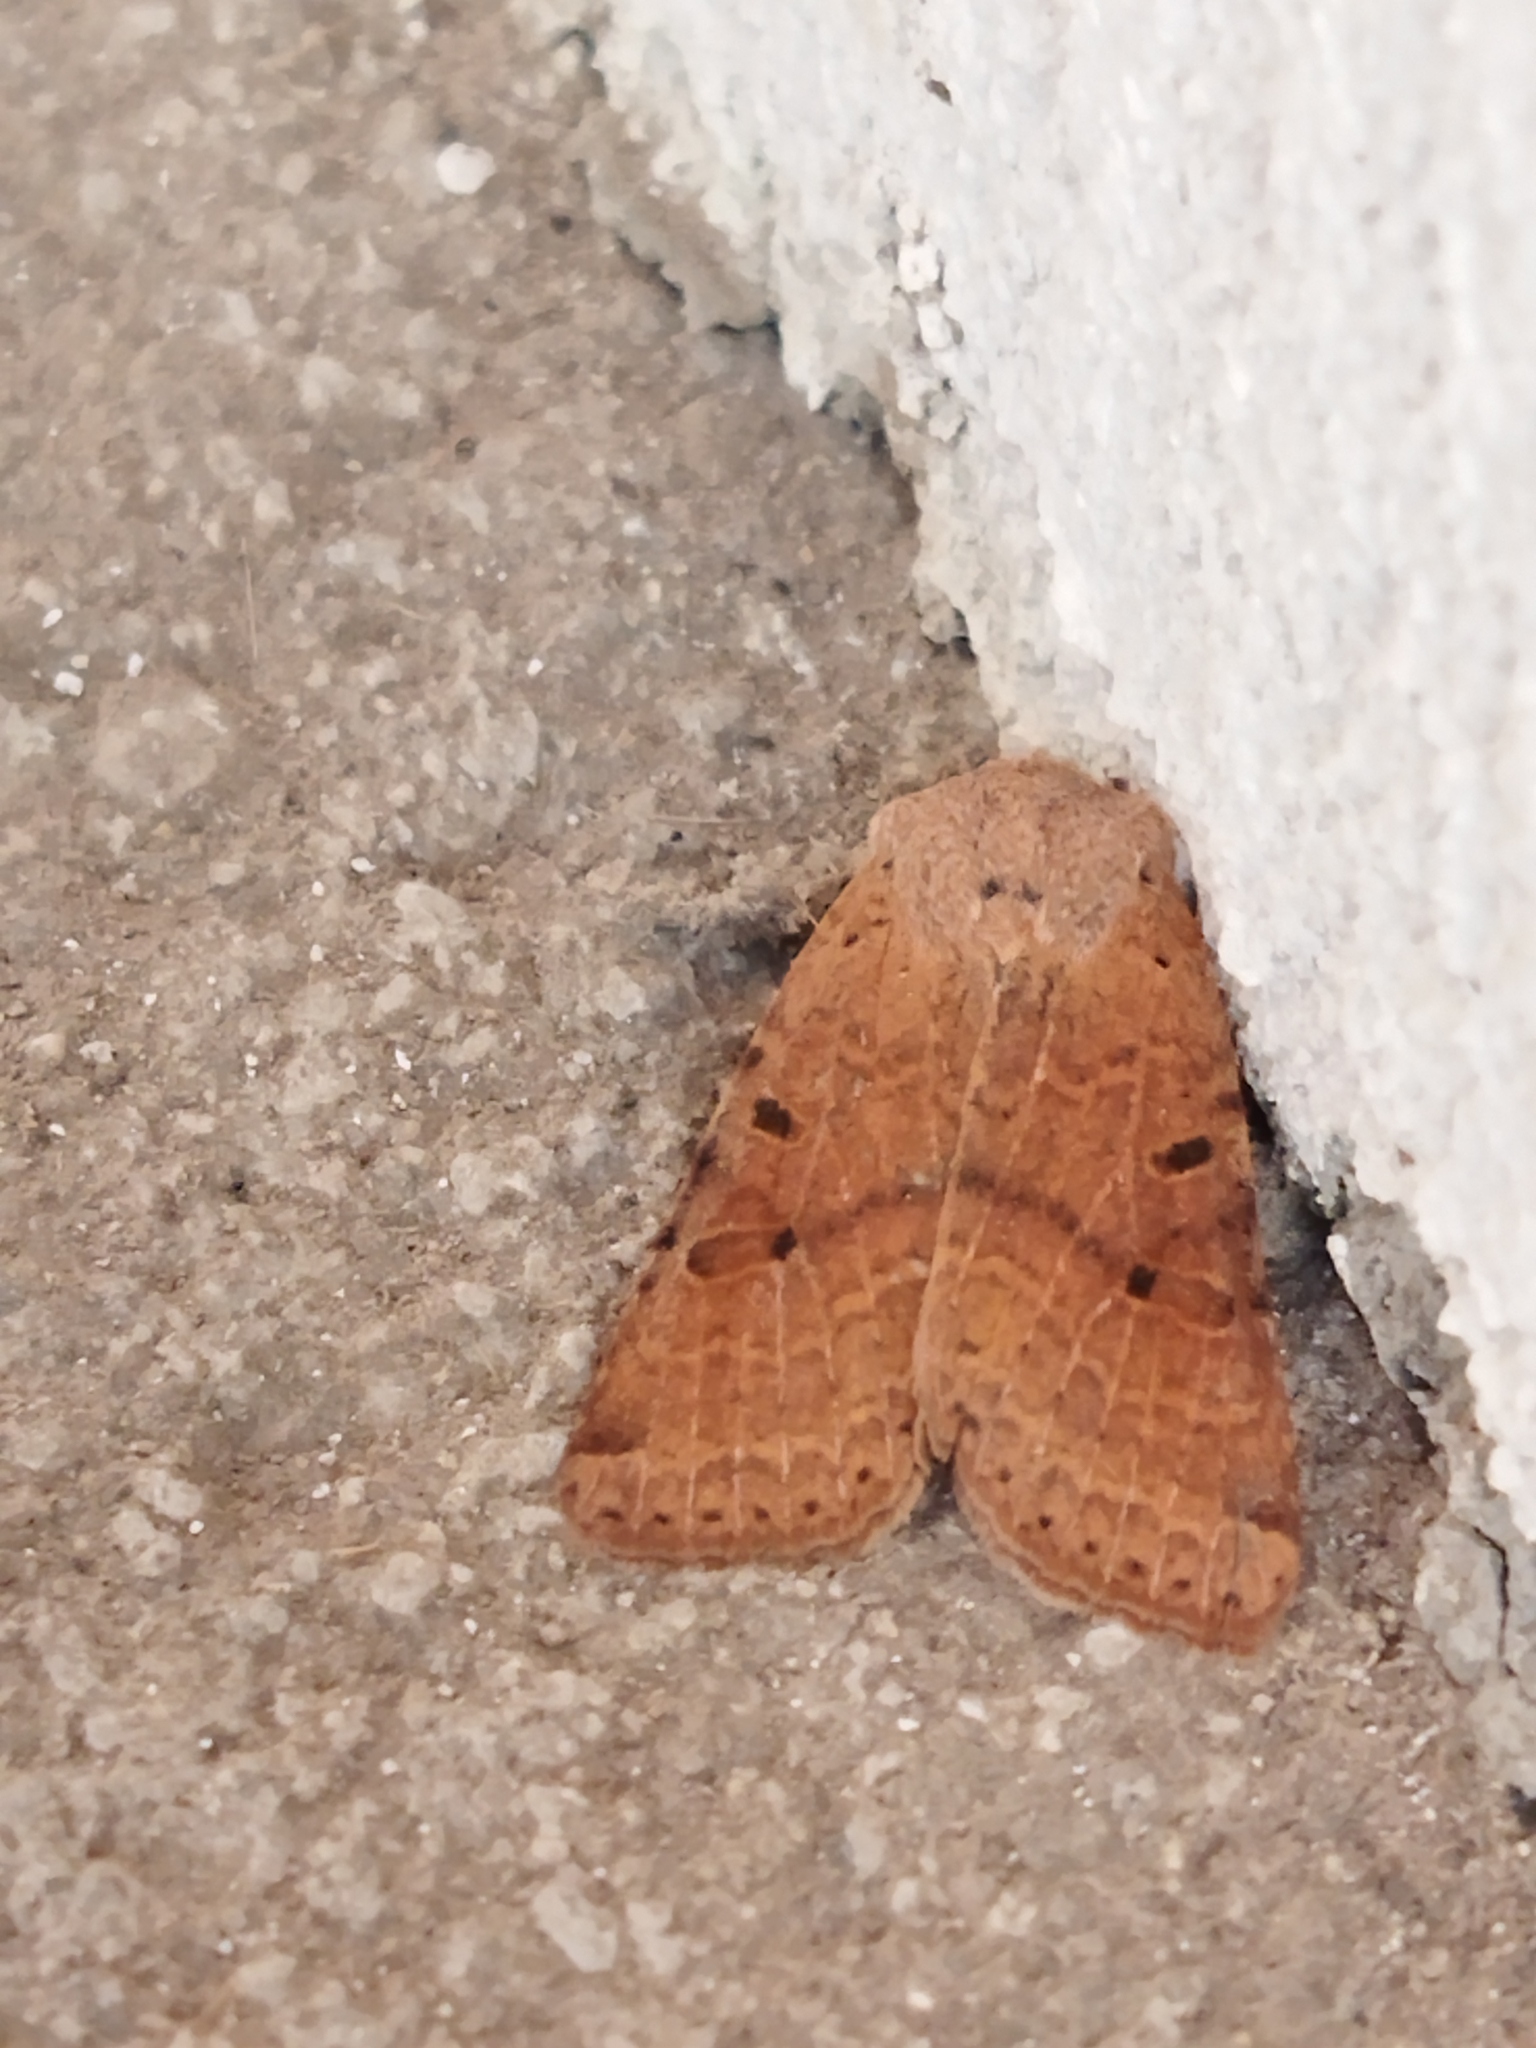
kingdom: Animalia
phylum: Arthropoda
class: Insecta
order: Lepidoptera
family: Noctuidae
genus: Agrochola
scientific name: Agrochola lychnidis
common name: Beaded chestnut
